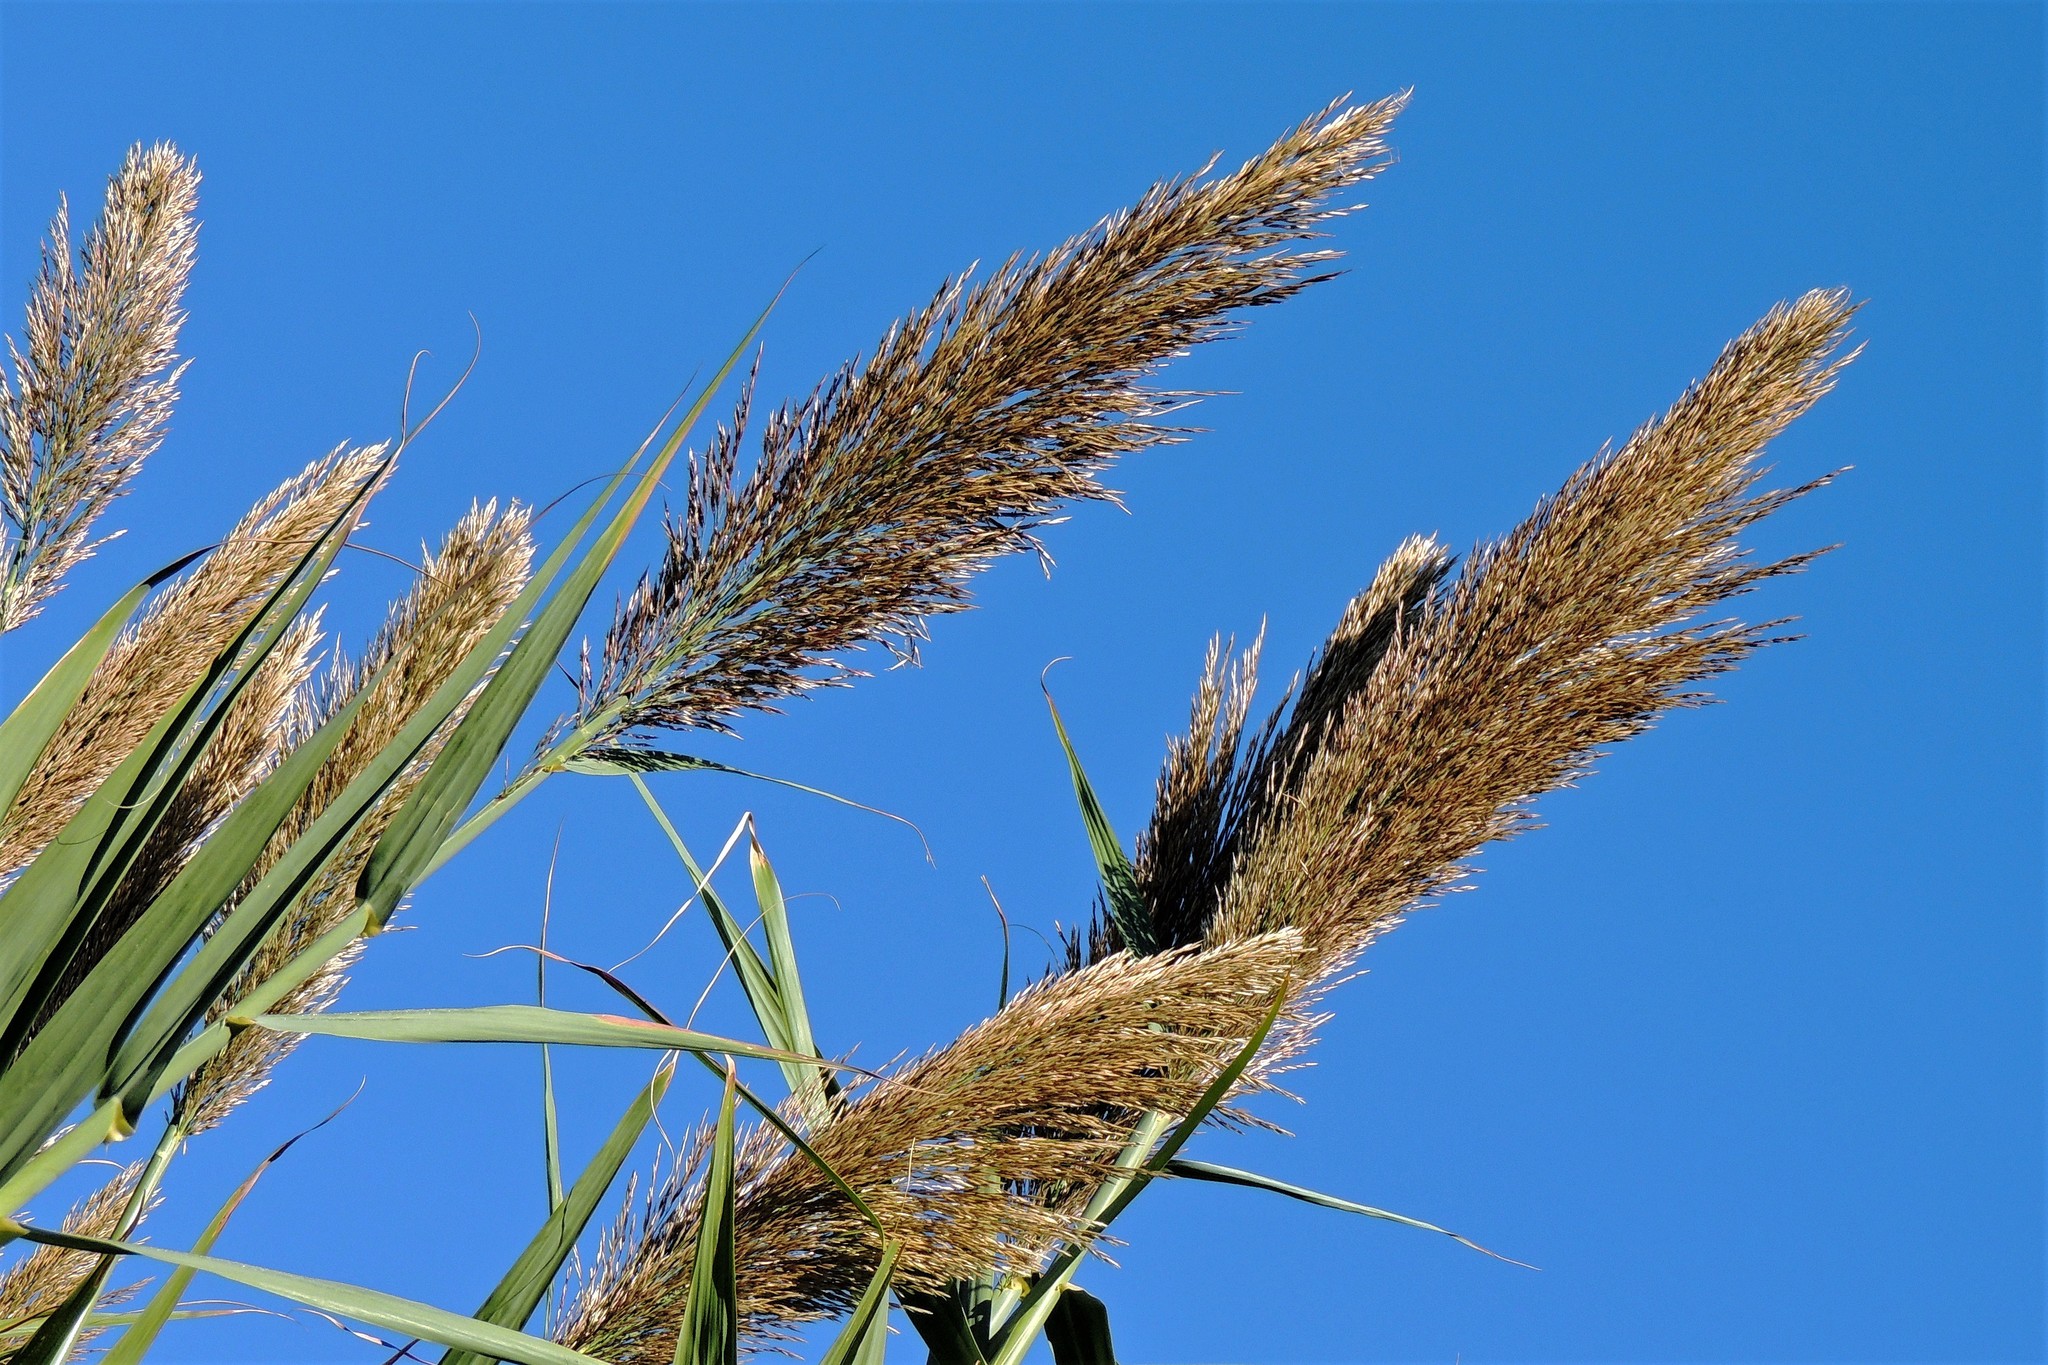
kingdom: Plantae
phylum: Tracheophyta
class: Liliopsida
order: Poales
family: Poaceae
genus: Arundo
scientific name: Arundo donax
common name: Giant reed
